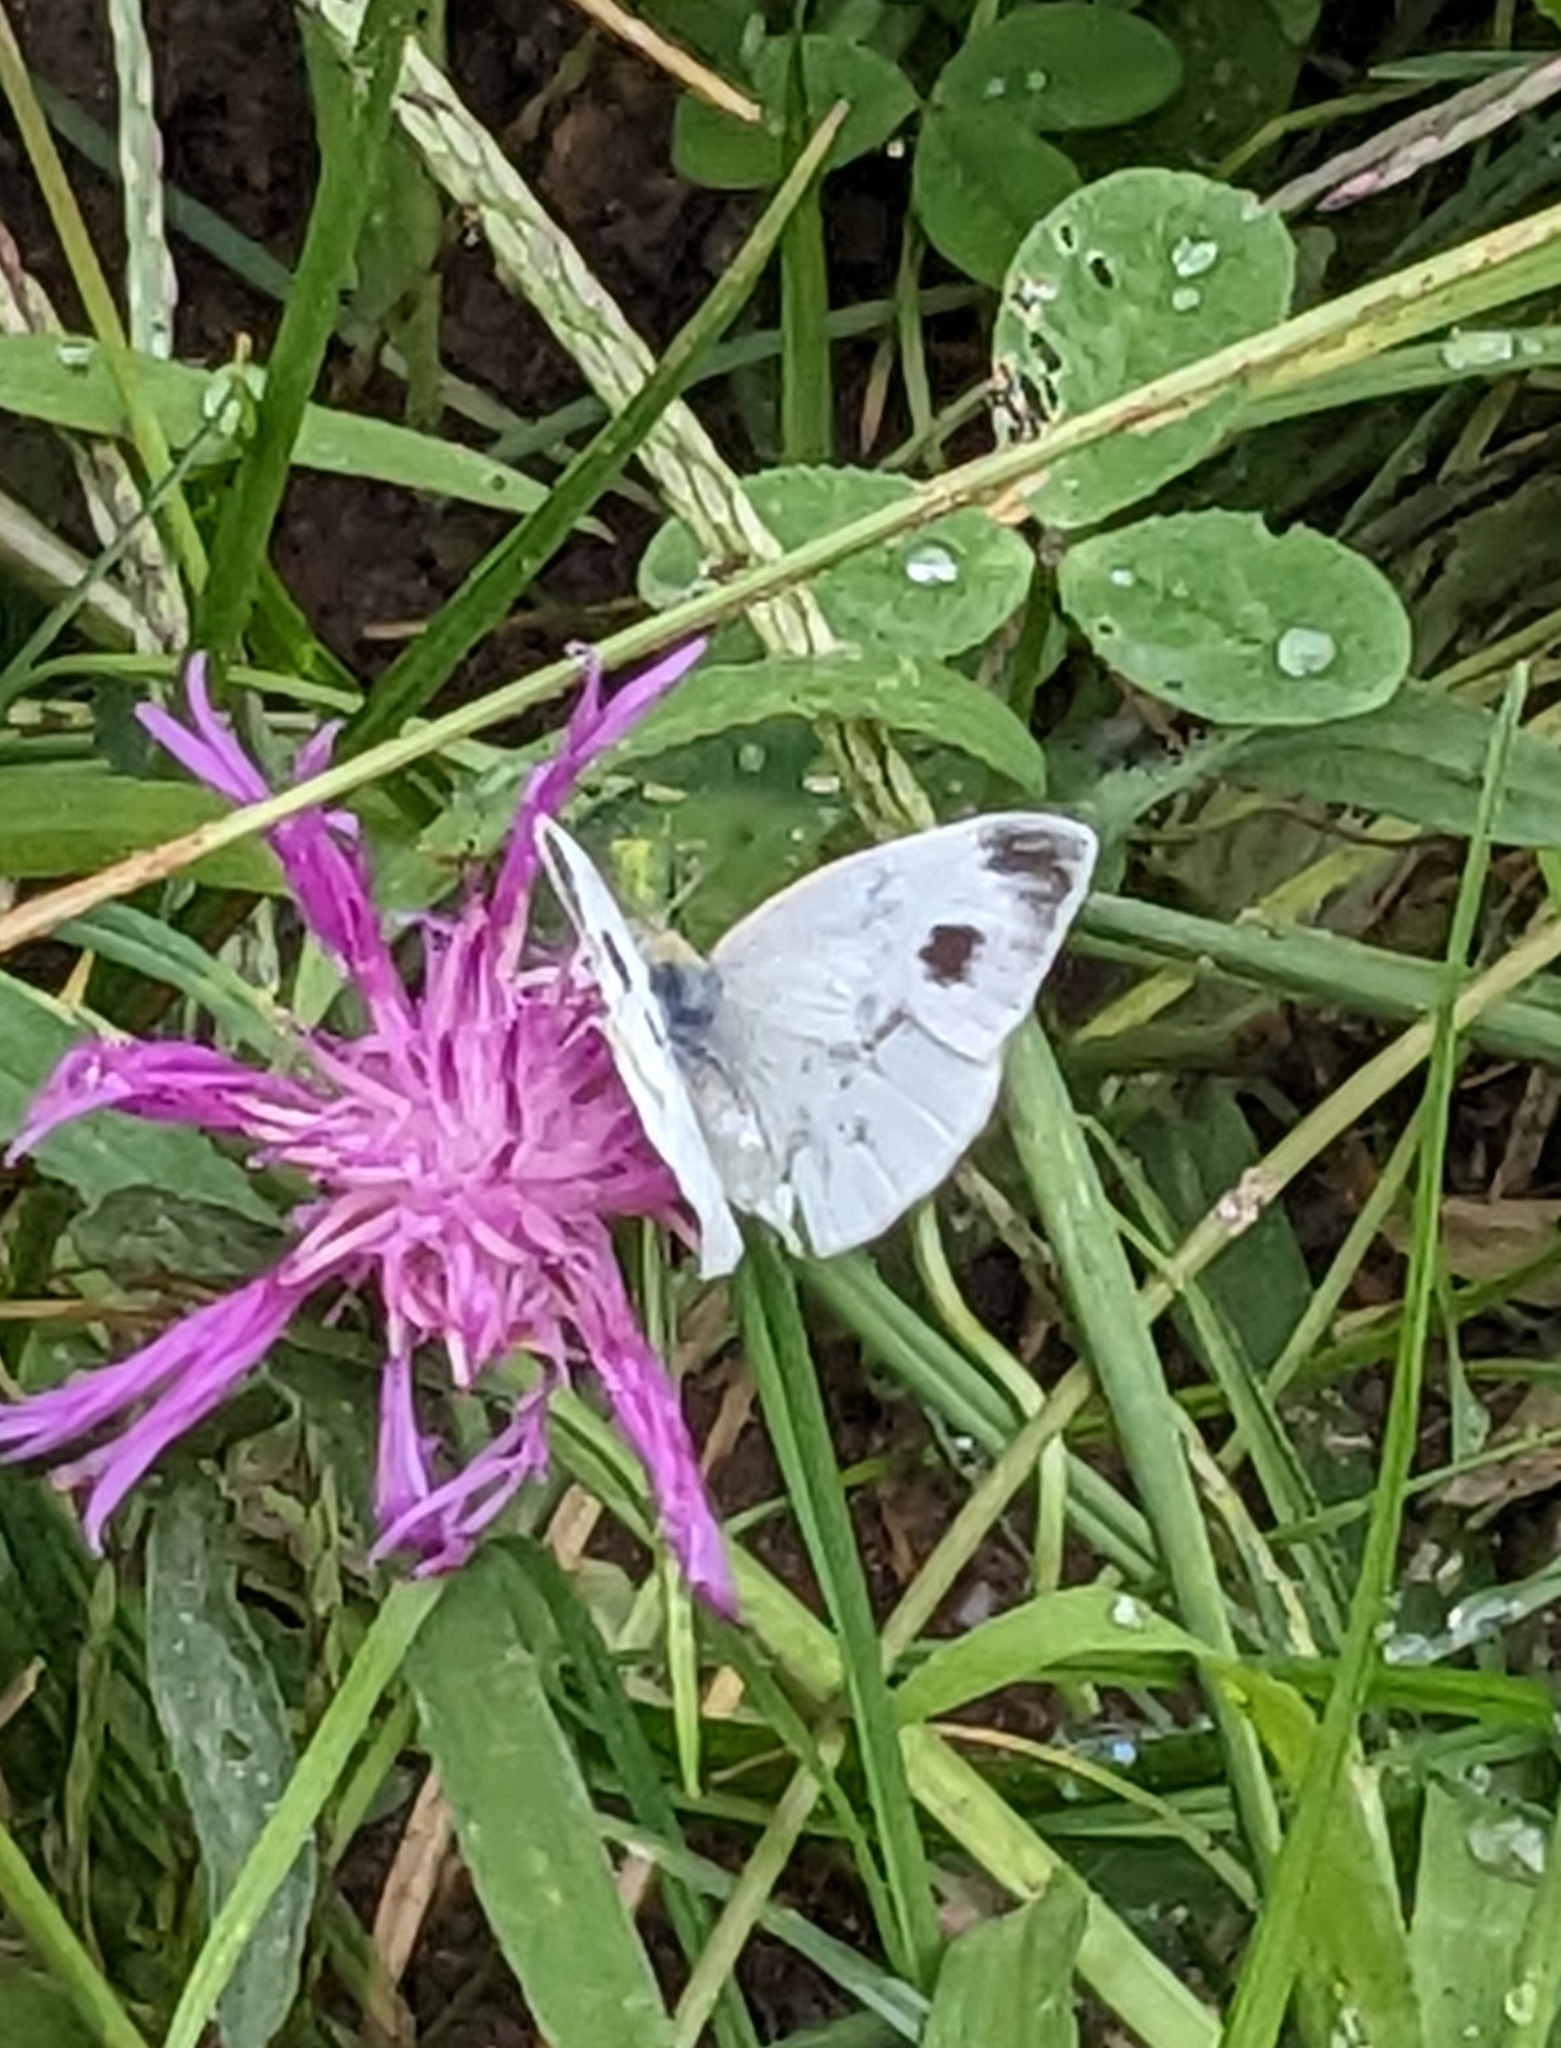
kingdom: Animalia
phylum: Arthropoda
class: Insecta
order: Lepidoptera
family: Pieridae
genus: Pieris
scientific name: Pieris mannii
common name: Southern small white
